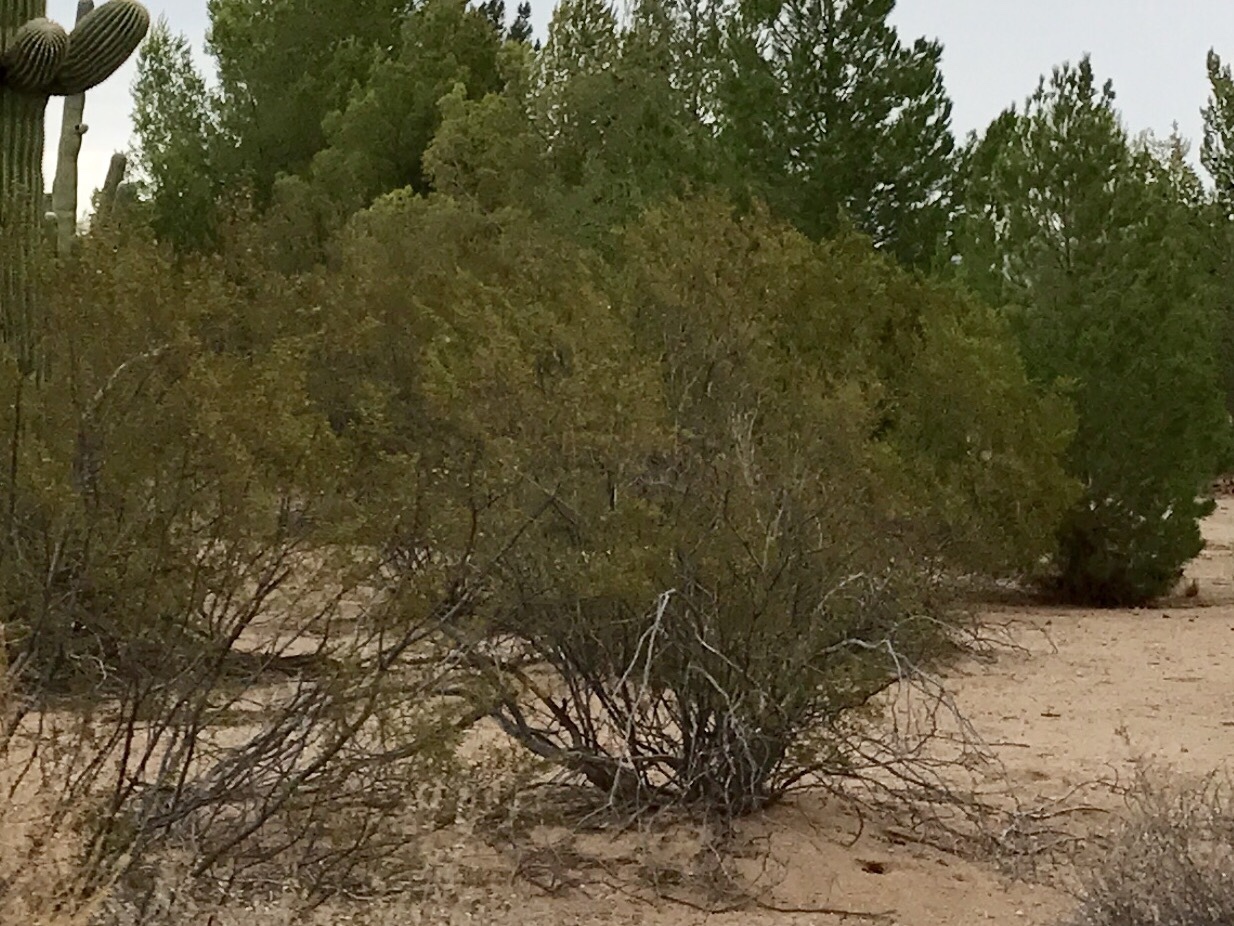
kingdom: Plantae
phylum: Tracheophyta
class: Magnoliopsida
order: Zygophyllales
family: Zygophyllaceae
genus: Larrea
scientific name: Larrea tridentata
